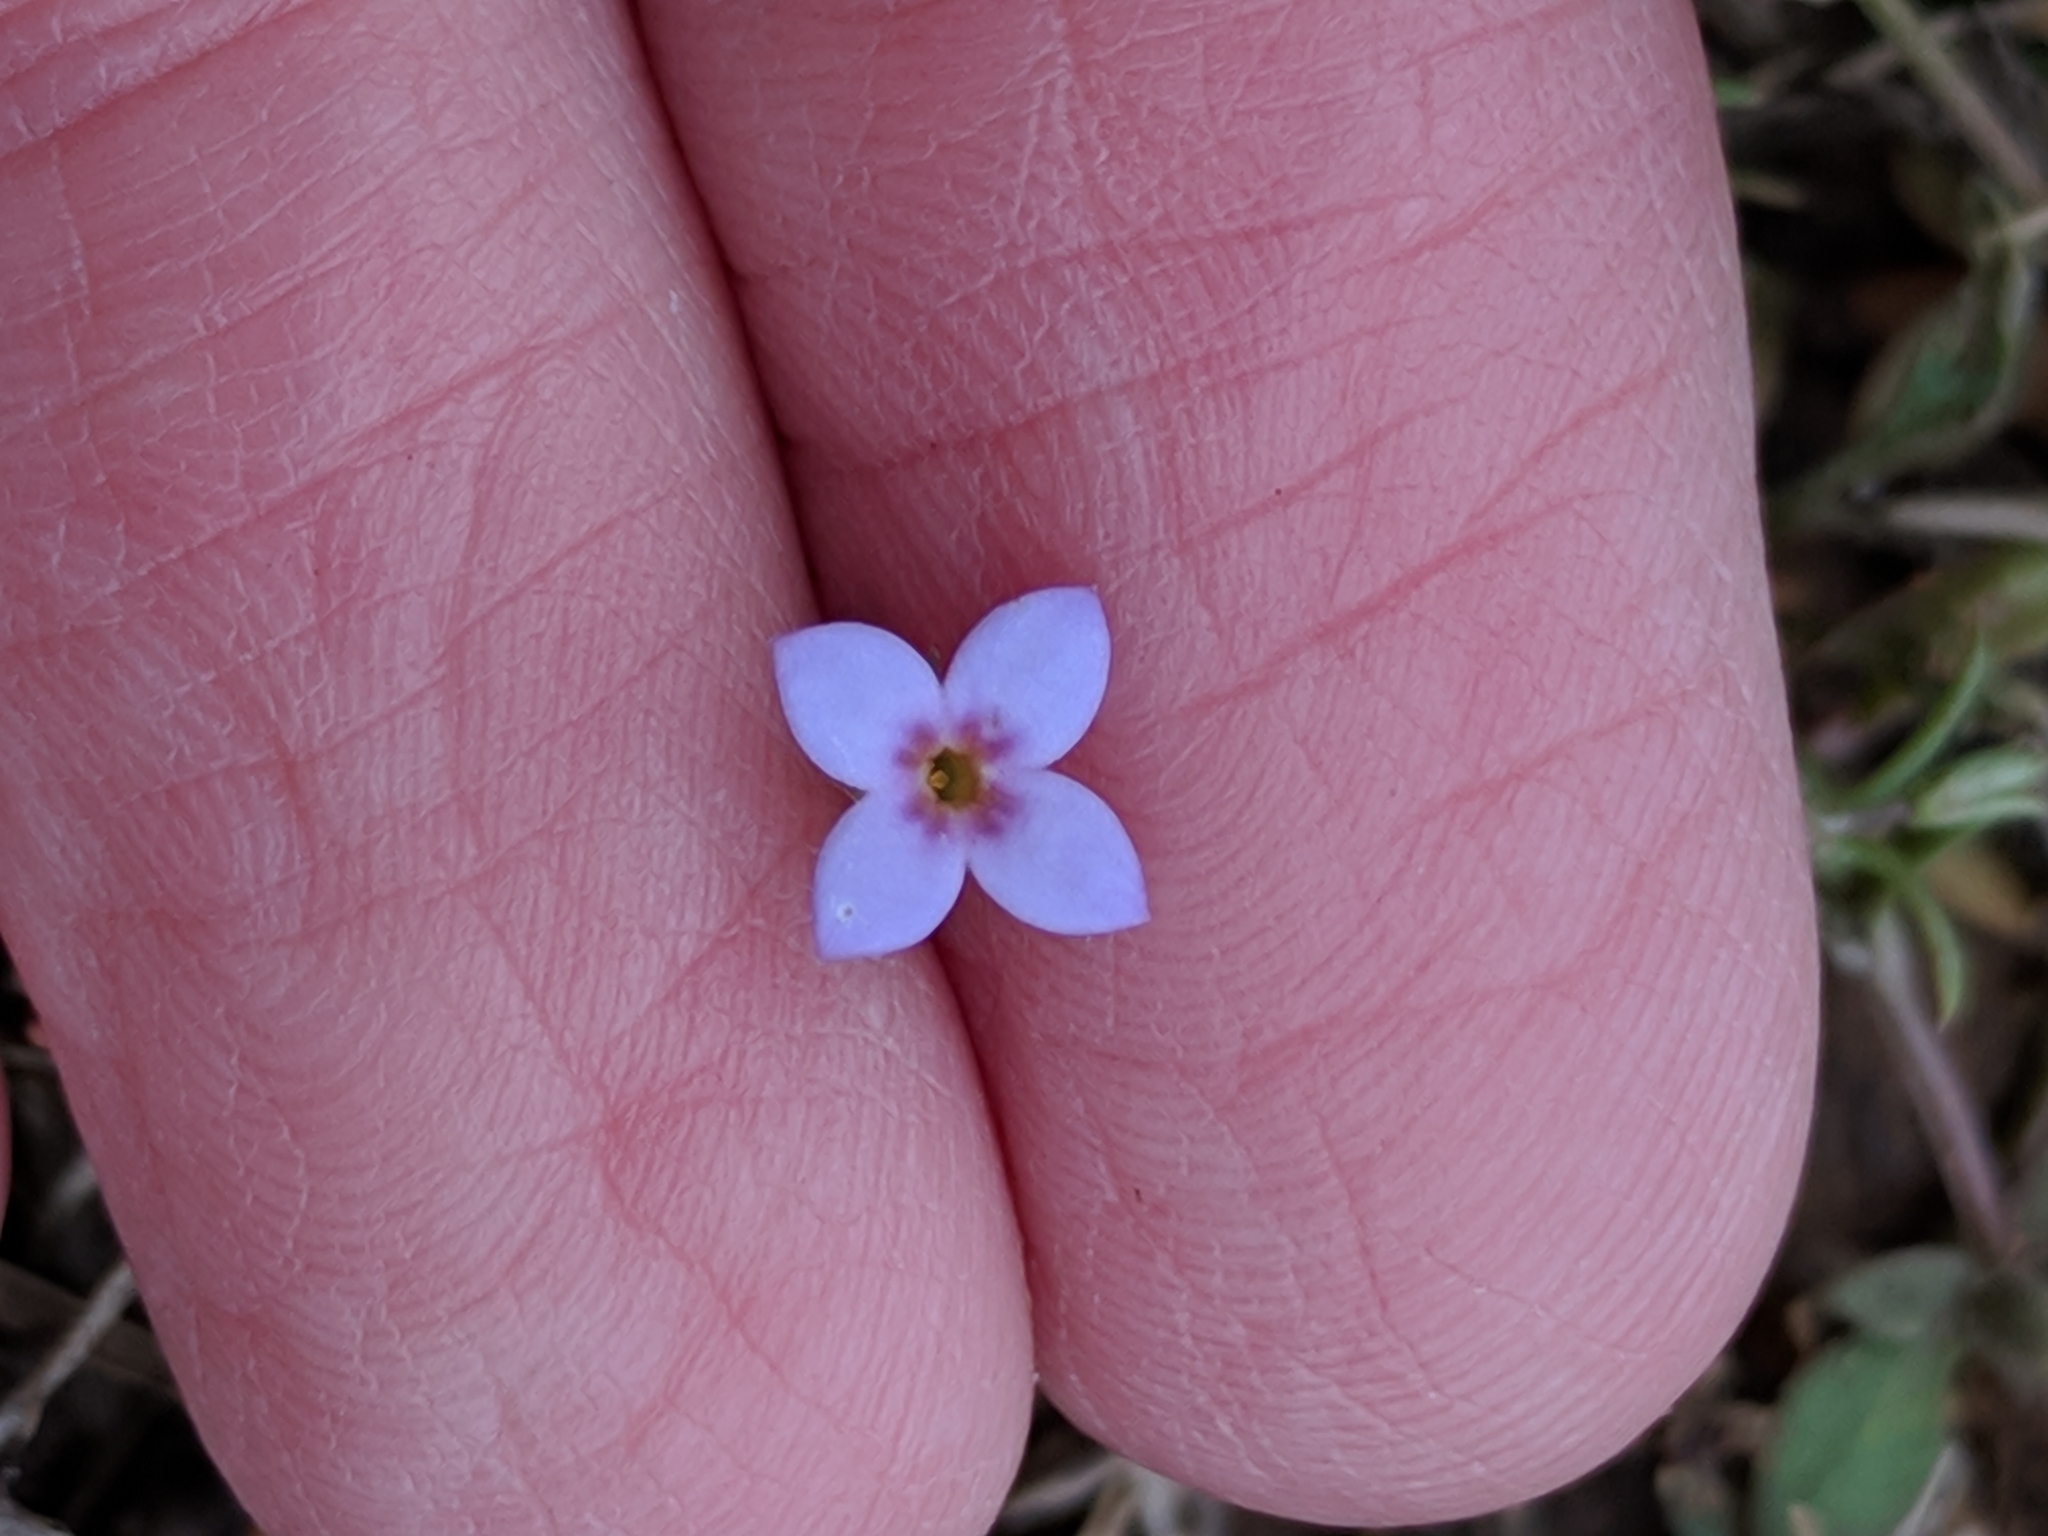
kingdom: Plantae
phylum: Tracheophyta
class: Magnoliopsida
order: Gentianales
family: Rubiaceae
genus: Houstonia
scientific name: Houstonia pusilla
